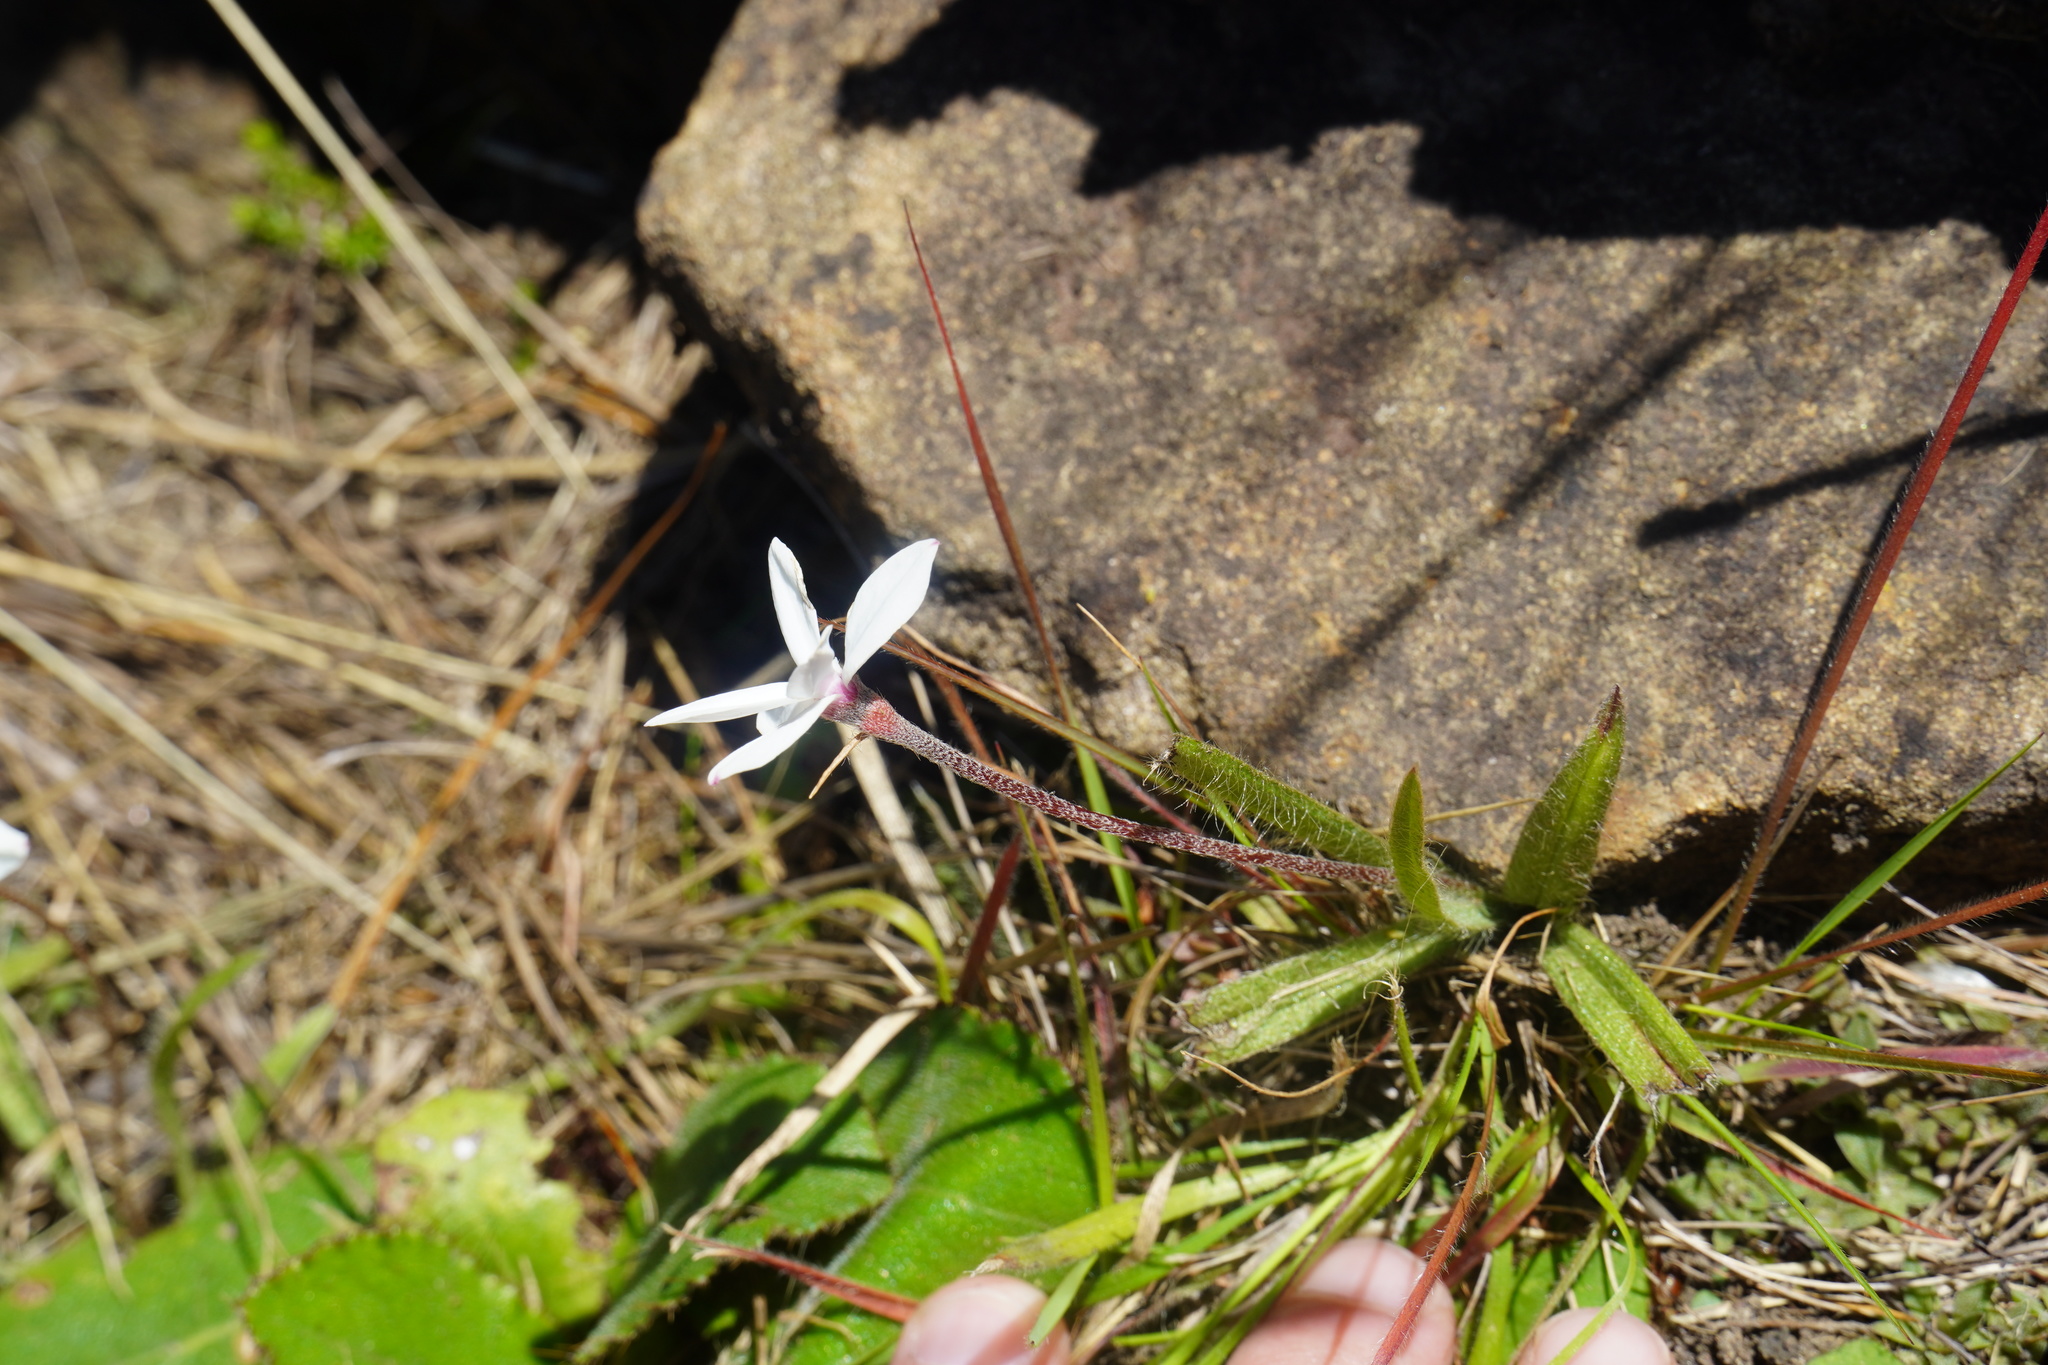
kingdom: Plantae
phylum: Tracheophyta
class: Liliopsida
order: Asparagales
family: Hypoxidaceae
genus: Hypoxis
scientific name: Hypoxis baurii
